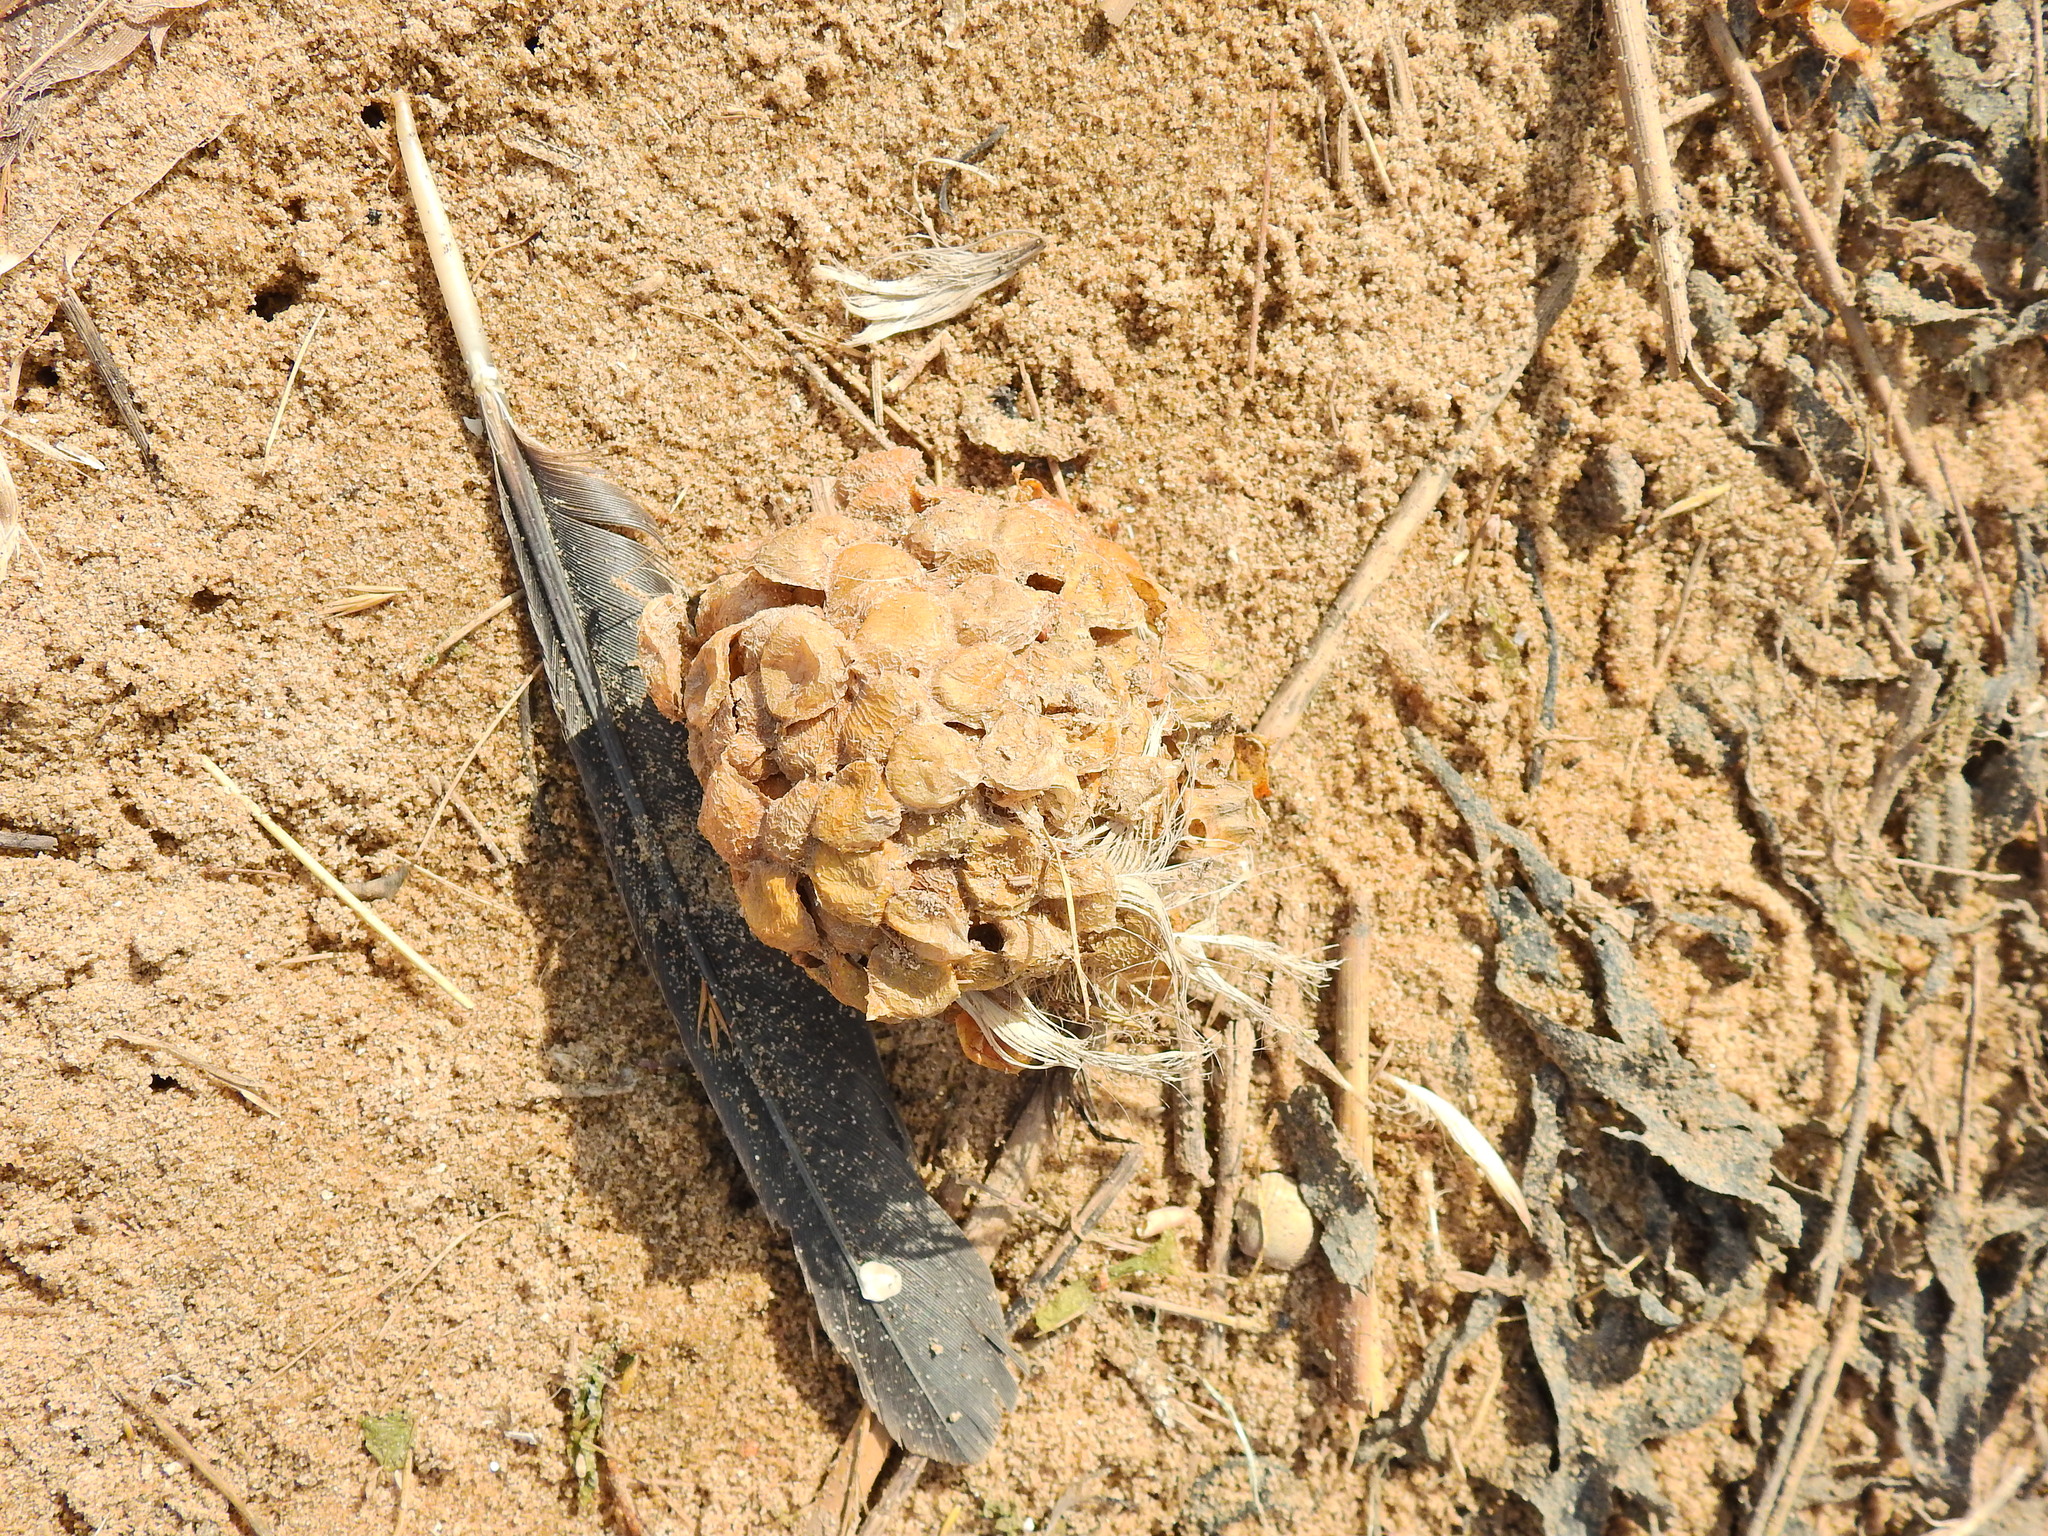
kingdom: Animalia
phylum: Mollusca
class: Gastropoda
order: Neogastropoda
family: Buccinidae
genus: Buccinum
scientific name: Buccinum undatum
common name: Common whelk
